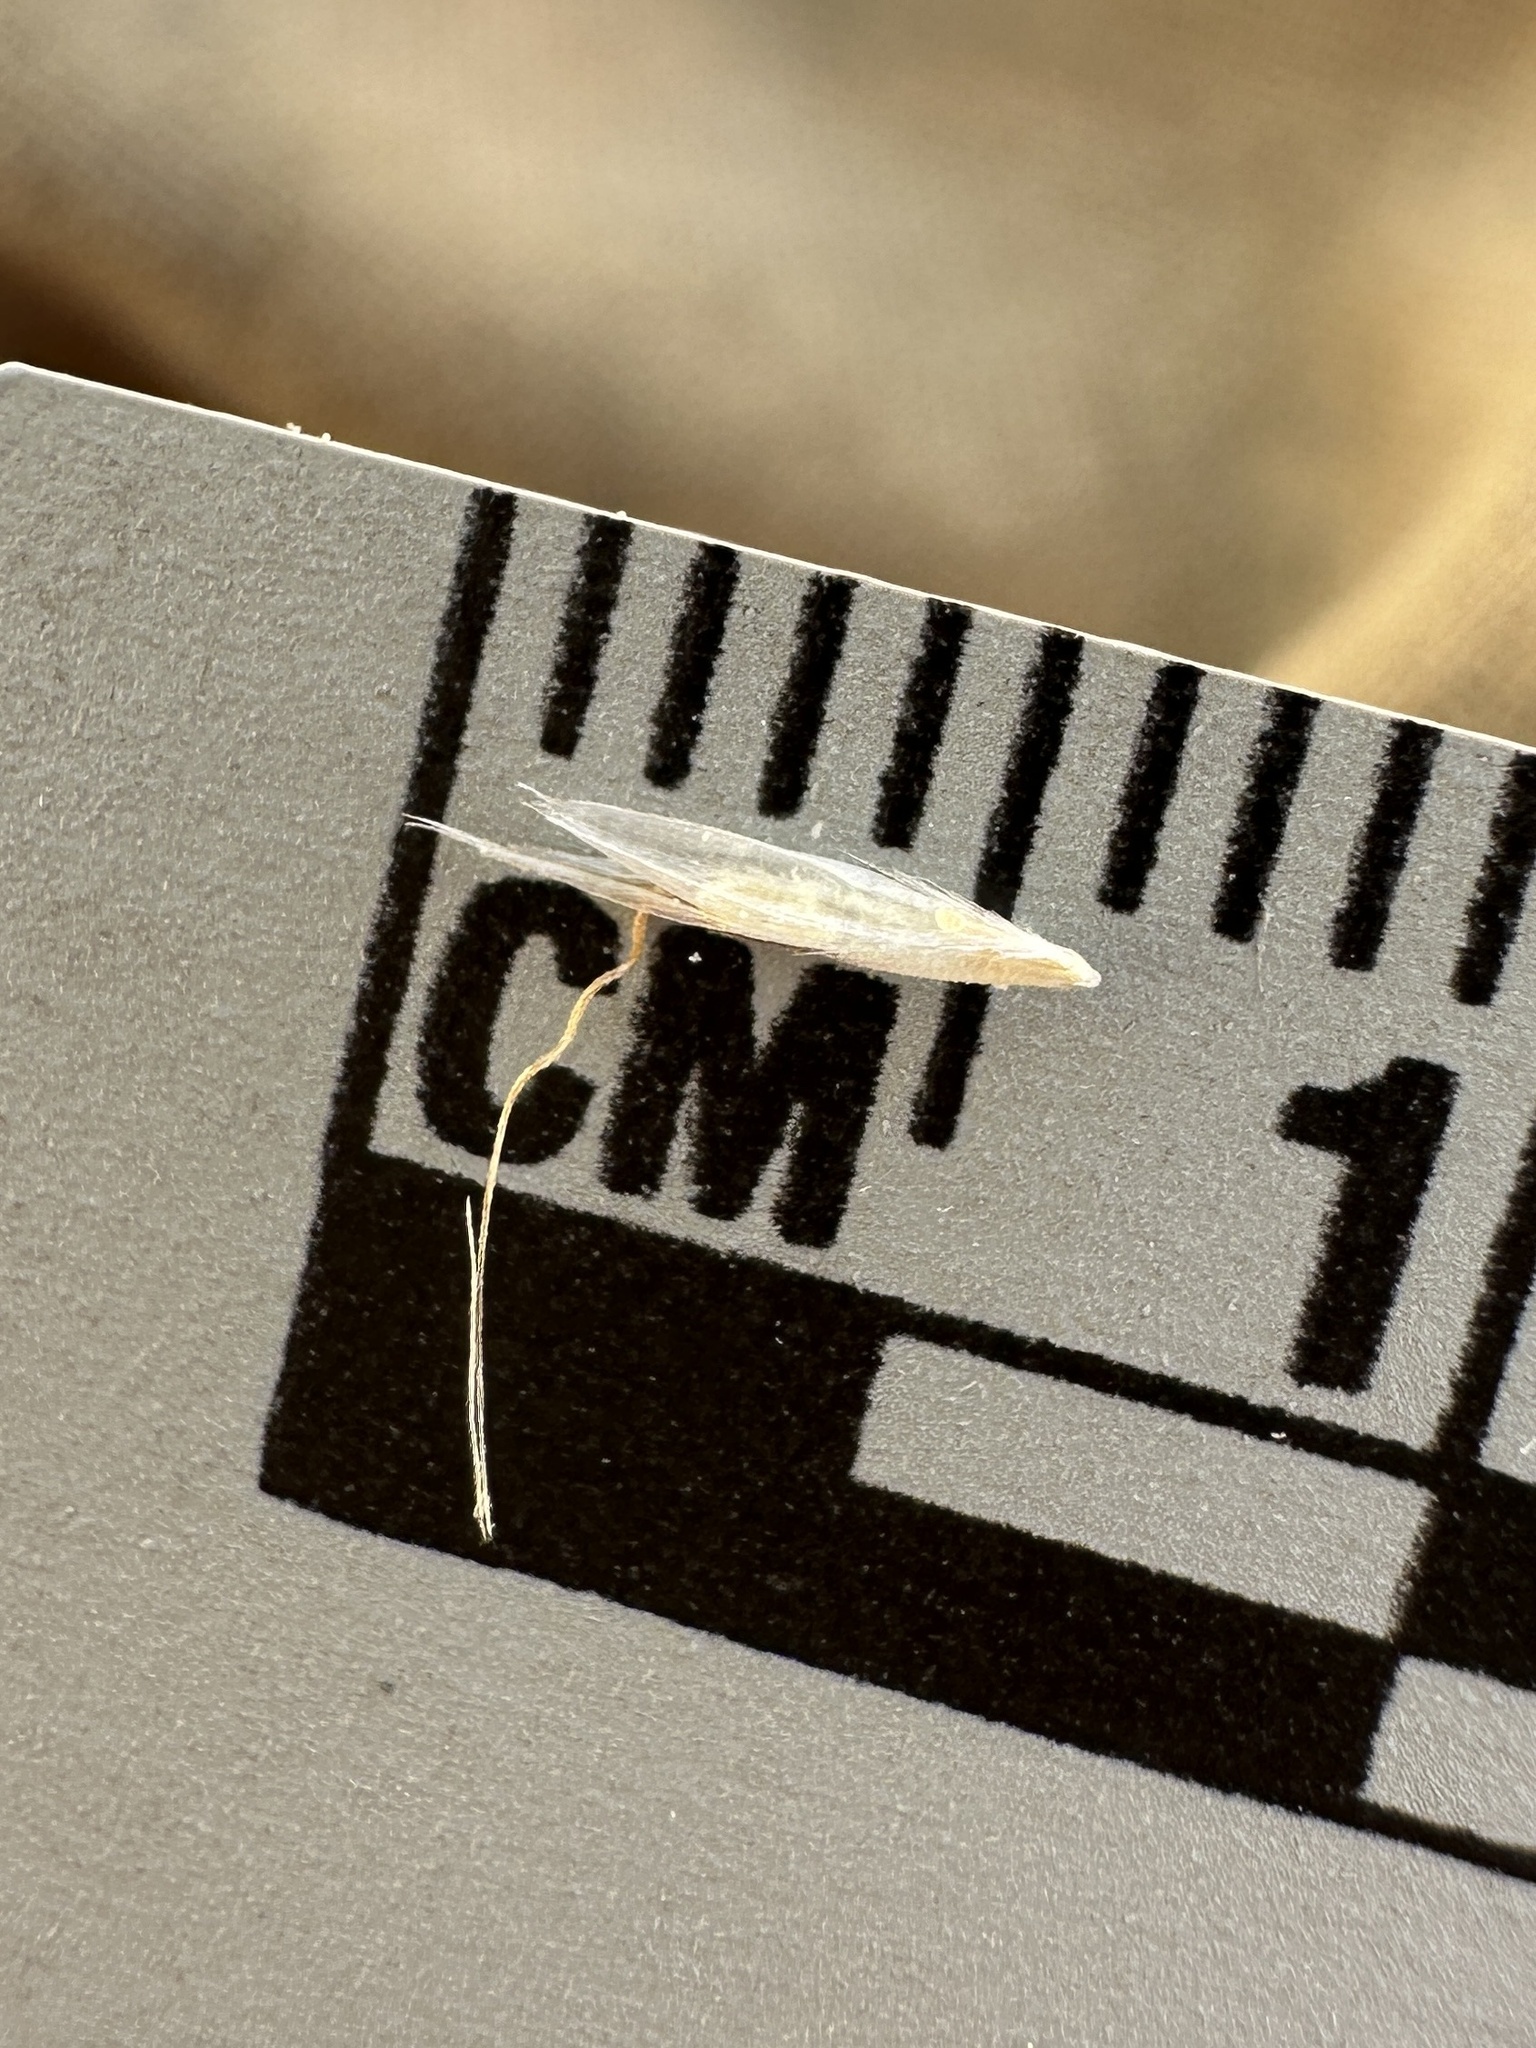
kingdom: Plantae
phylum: Tracheophyta
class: Liliopsida
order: Poales
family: Poaceae
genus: Koeleria
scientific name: Koeleria spicata
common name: Mountain trisetum
